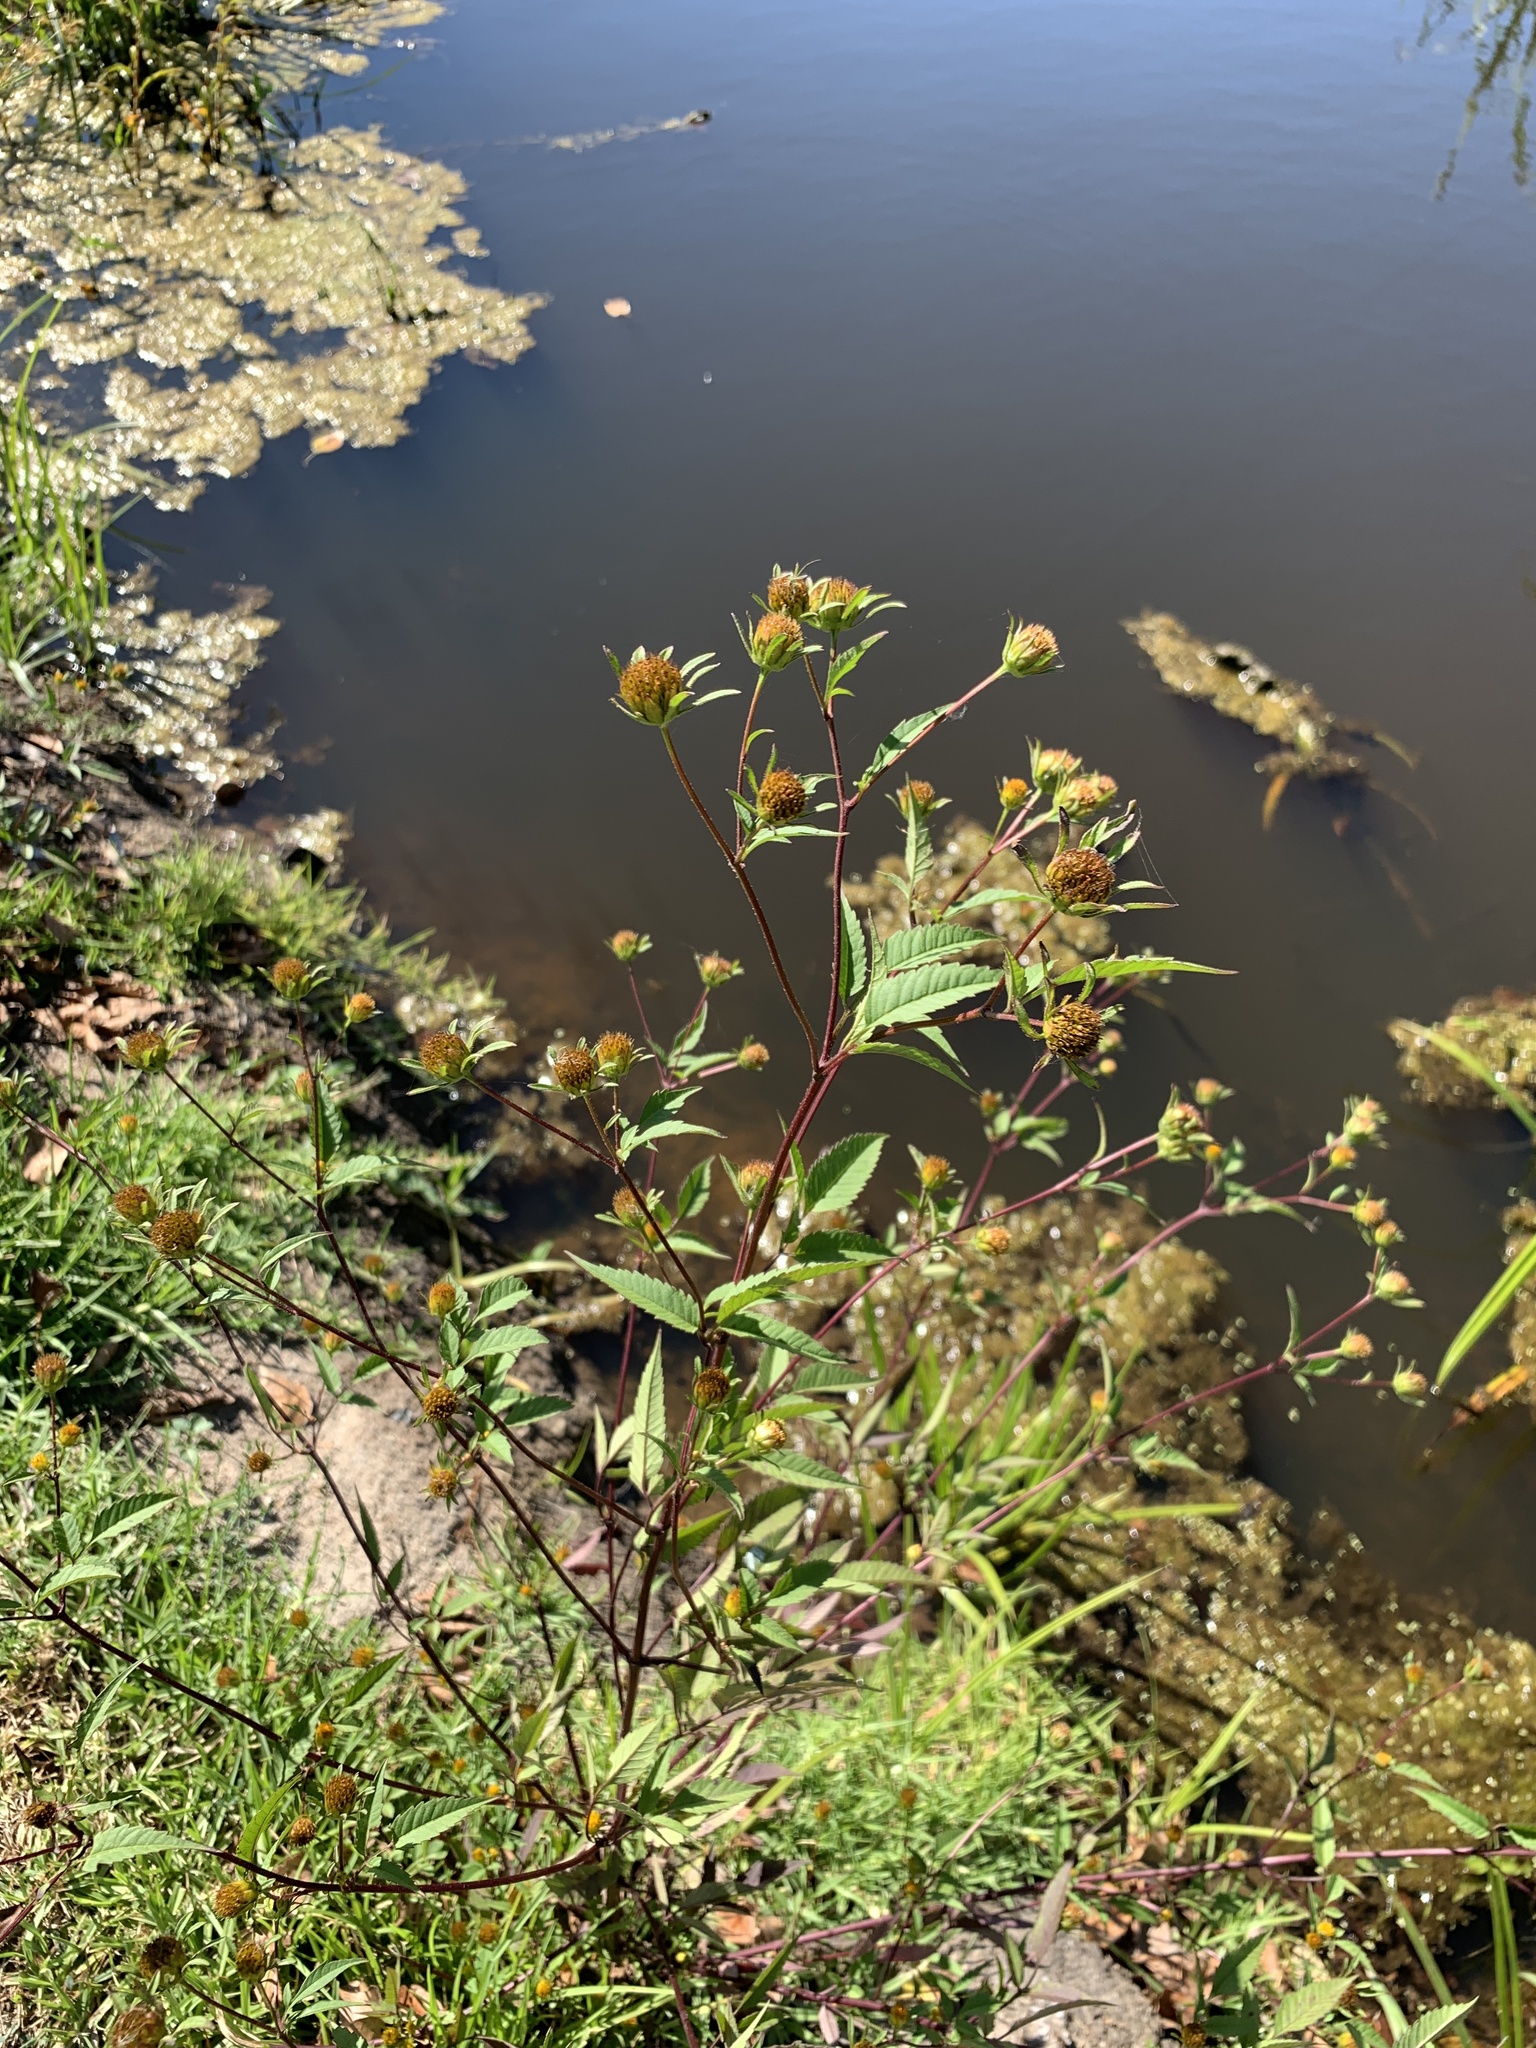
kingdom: Plantae
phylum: Tracheophyta
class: Magnoliopsida
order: Asterales
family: Asteraceae
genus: Bidens
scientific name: Bidens frondosa
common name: Beggarticks
